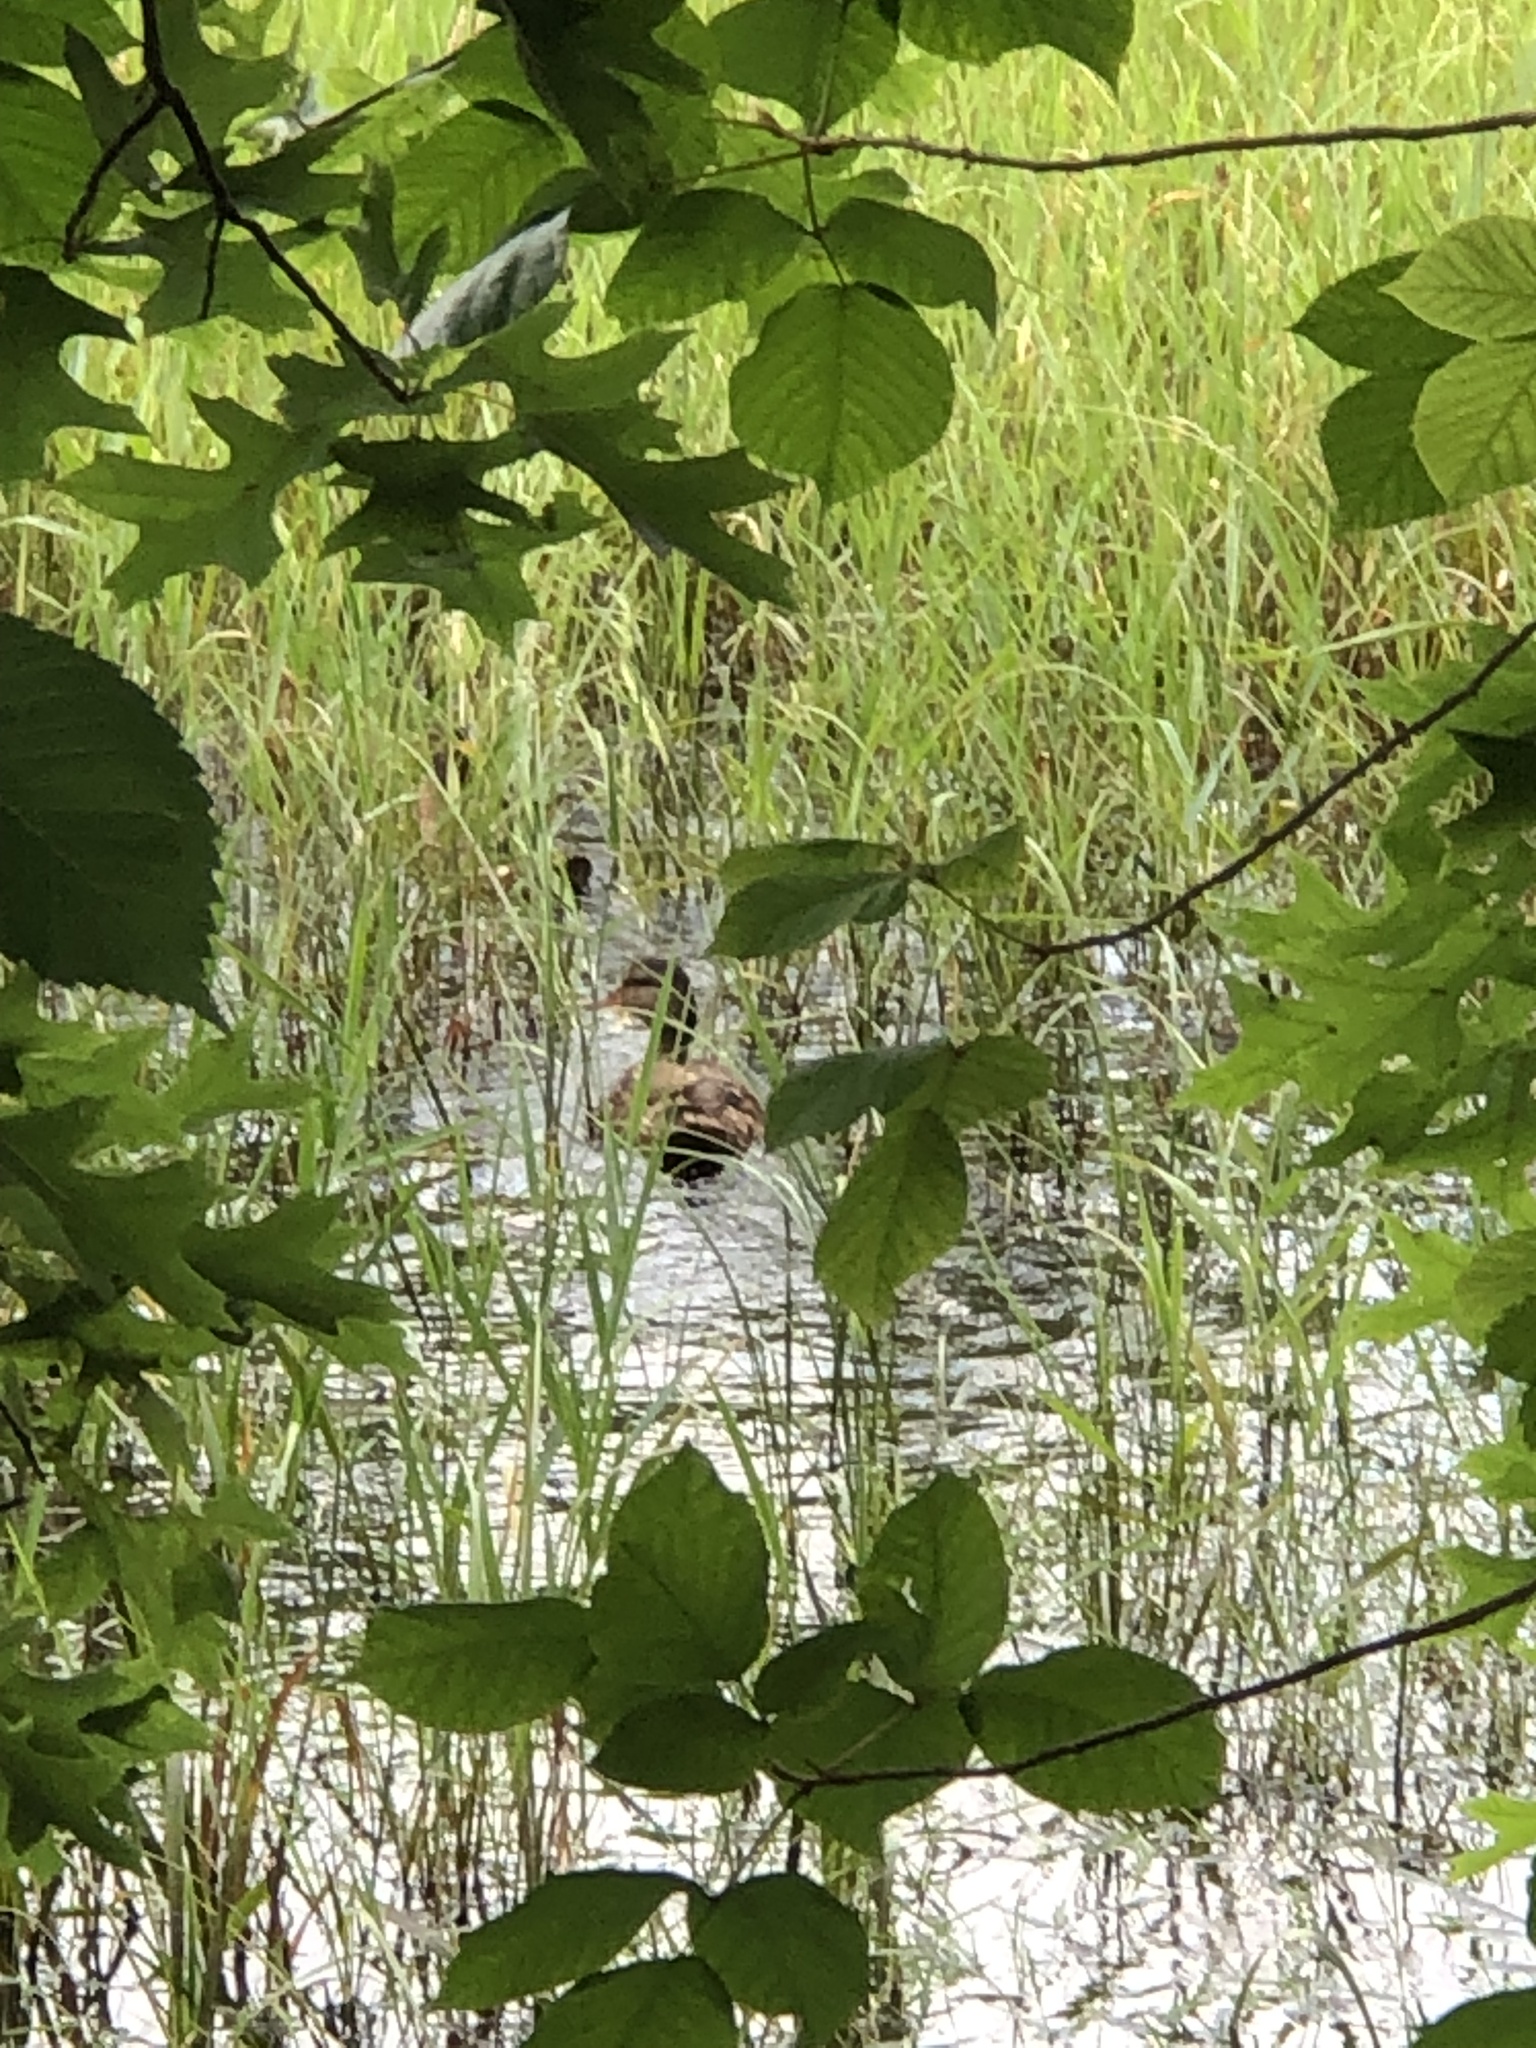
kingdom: Animalia
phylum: Chordata
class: Aves
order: Anseriformes
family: Anatidae
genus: Anas
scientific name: Anas platyrhynchos
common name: Mallard
